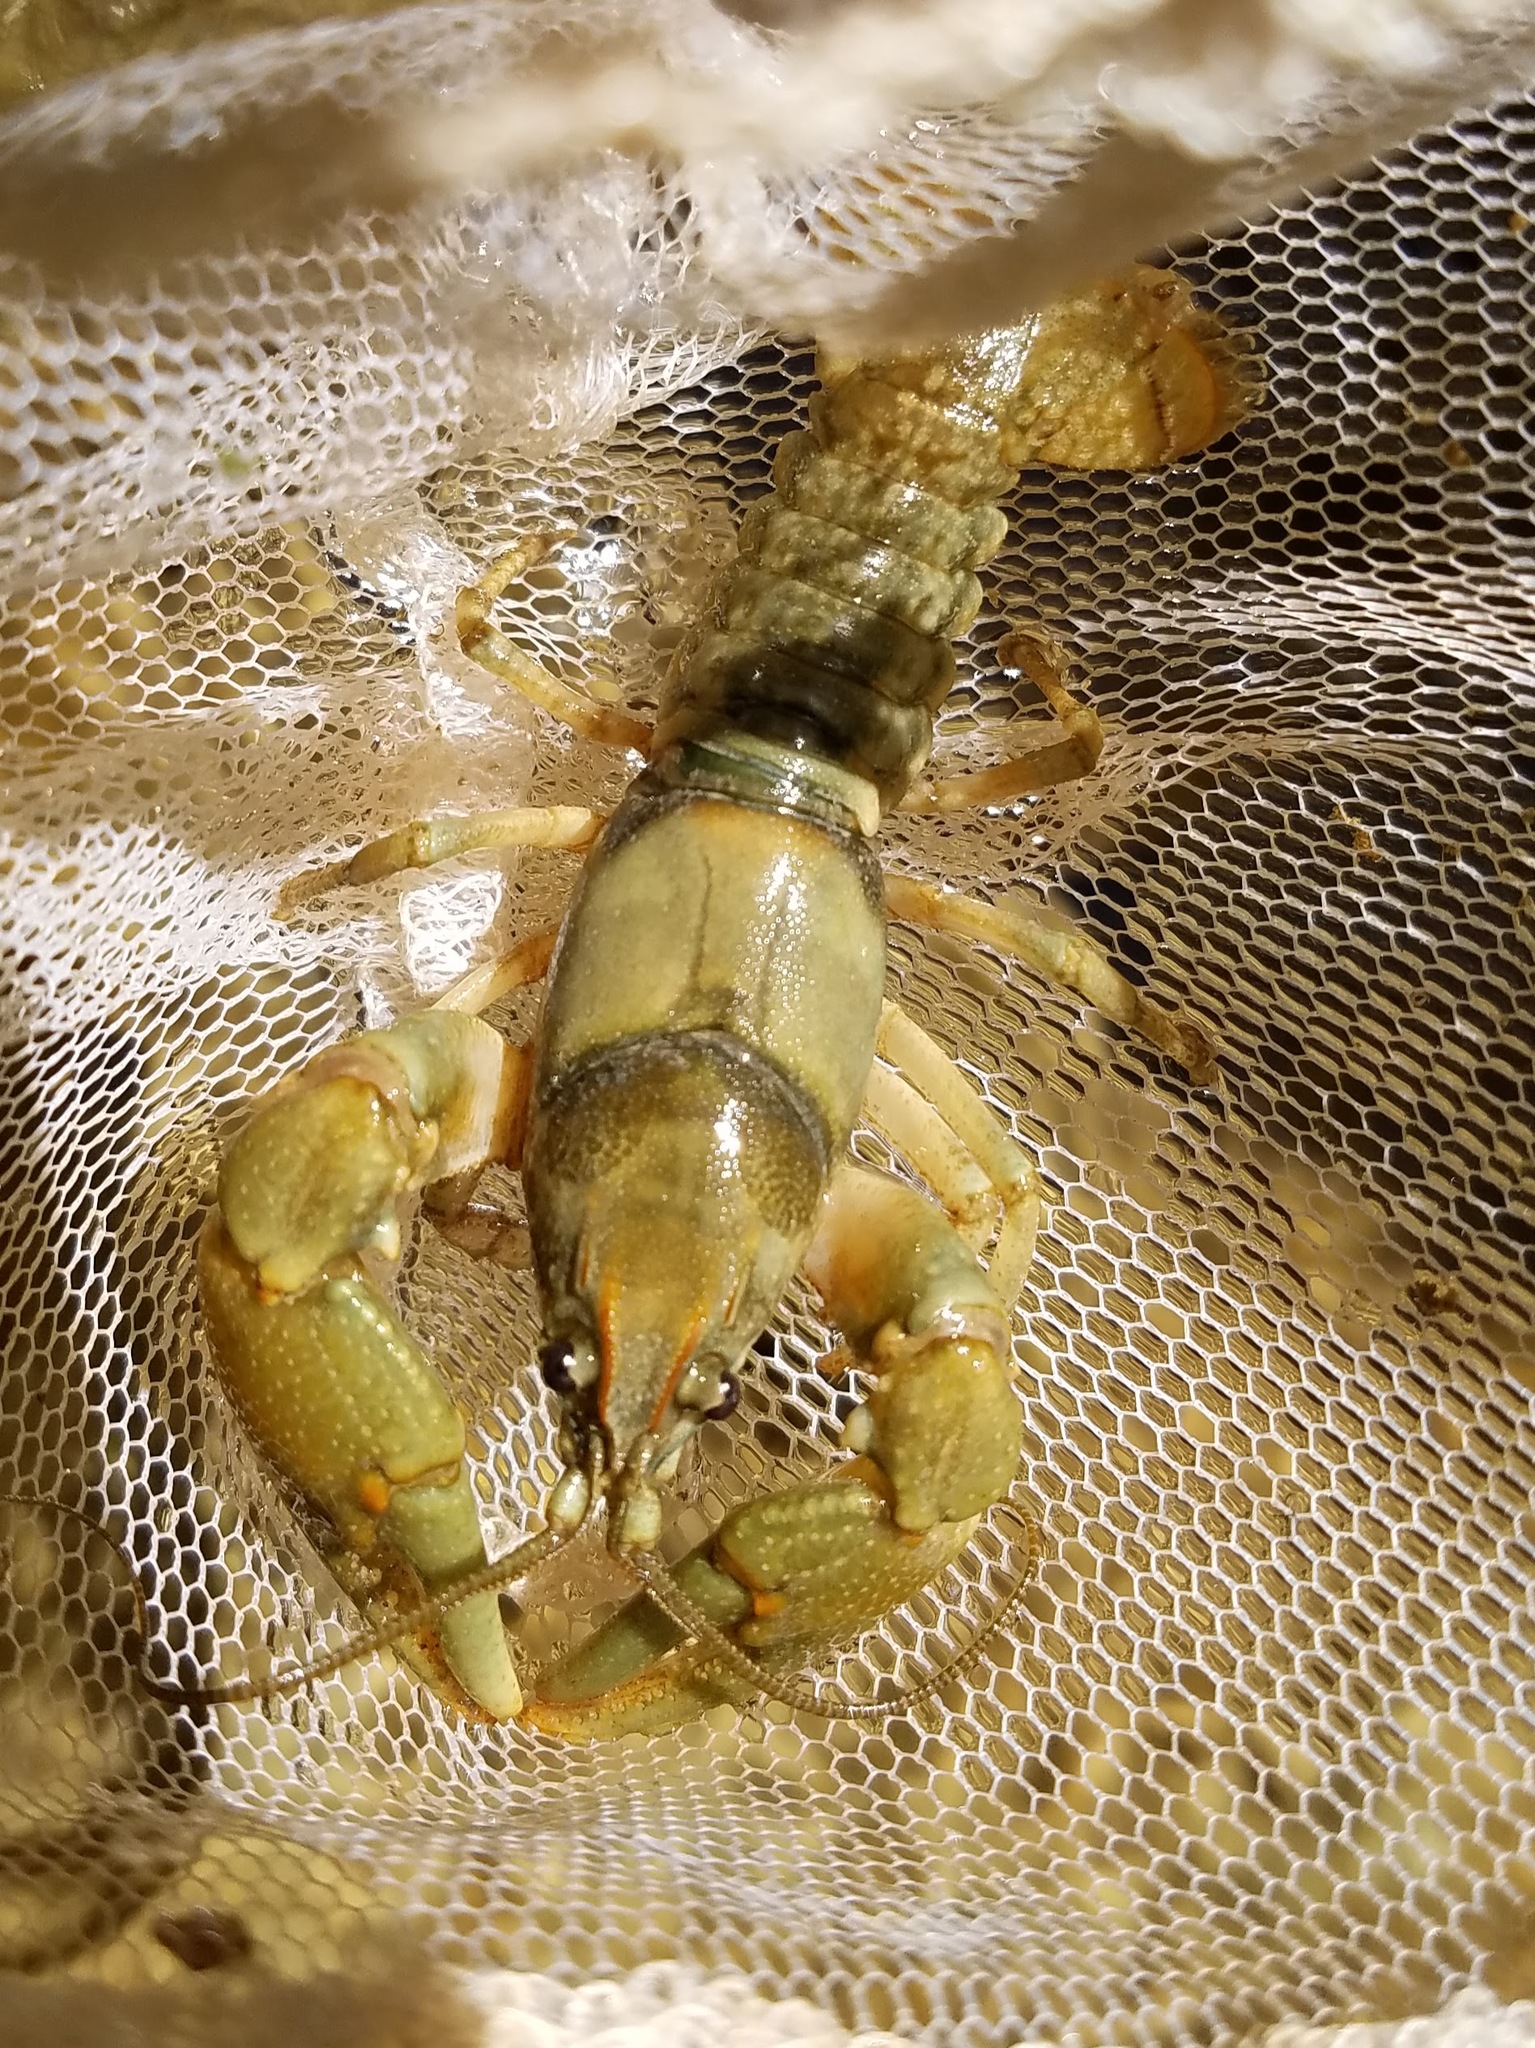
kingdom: Animalia
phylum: Arthropoda
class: Malacostraca
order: Decapoda
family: Cambaridae
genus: Cambarus
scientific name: Cambarus girardianus
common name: Tanback crayfish
